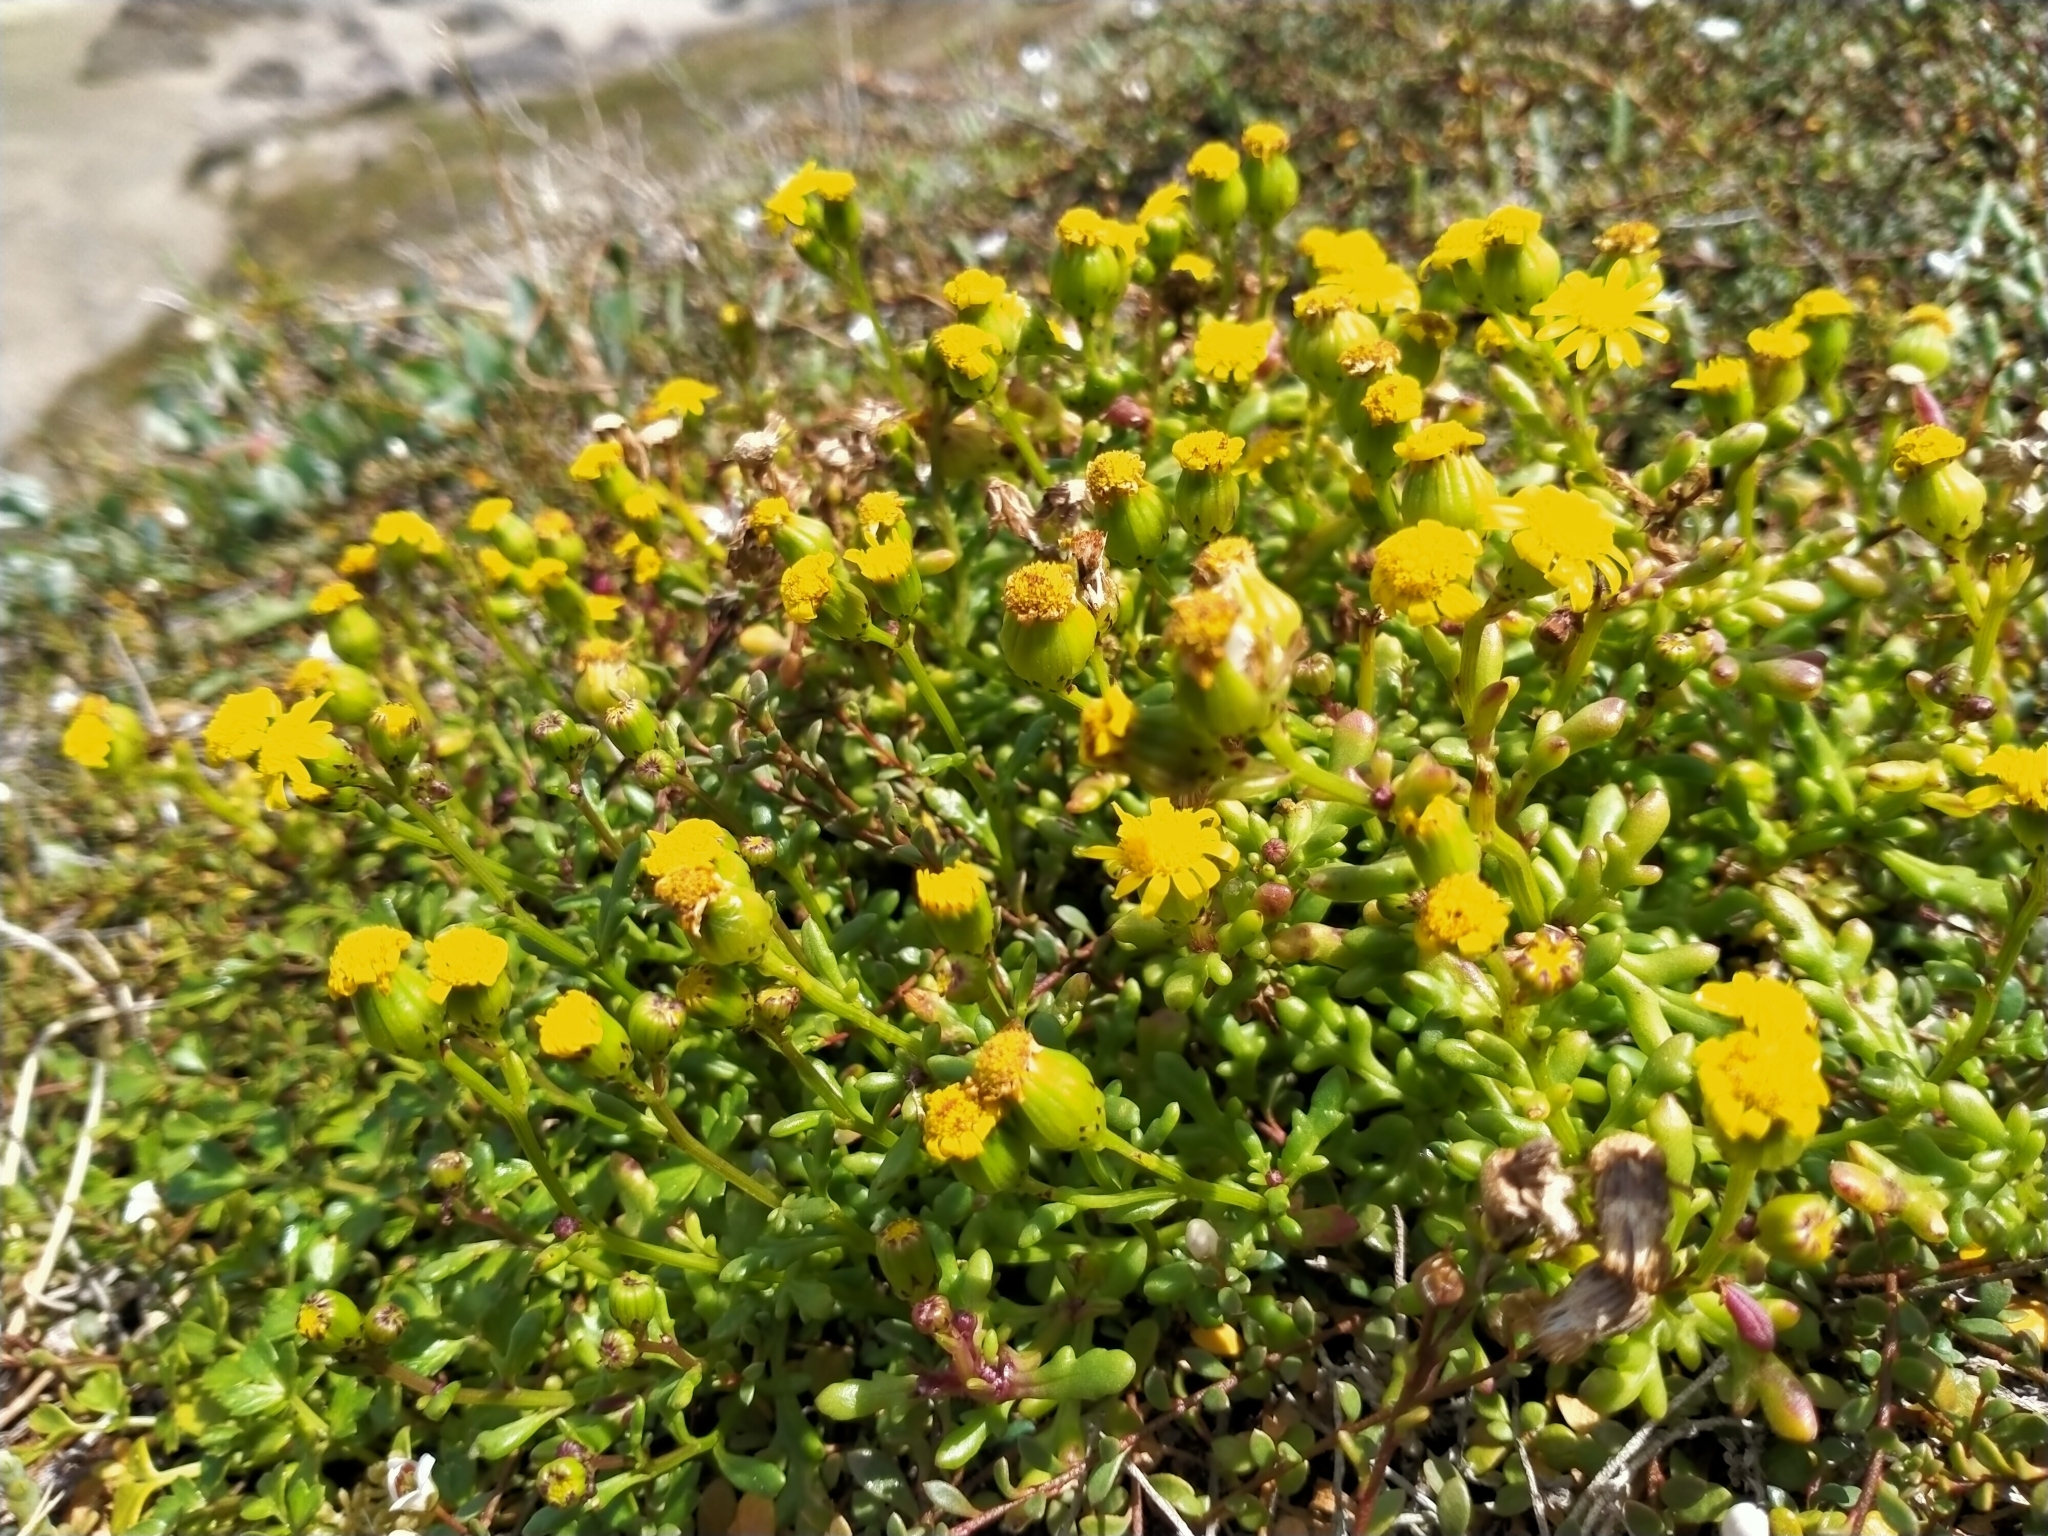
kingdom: Plantae
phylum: Tracheophyta
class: Magnoliopsida
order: Asterales
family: Asteraceae
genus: Senecio
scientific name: Senecio lautus
